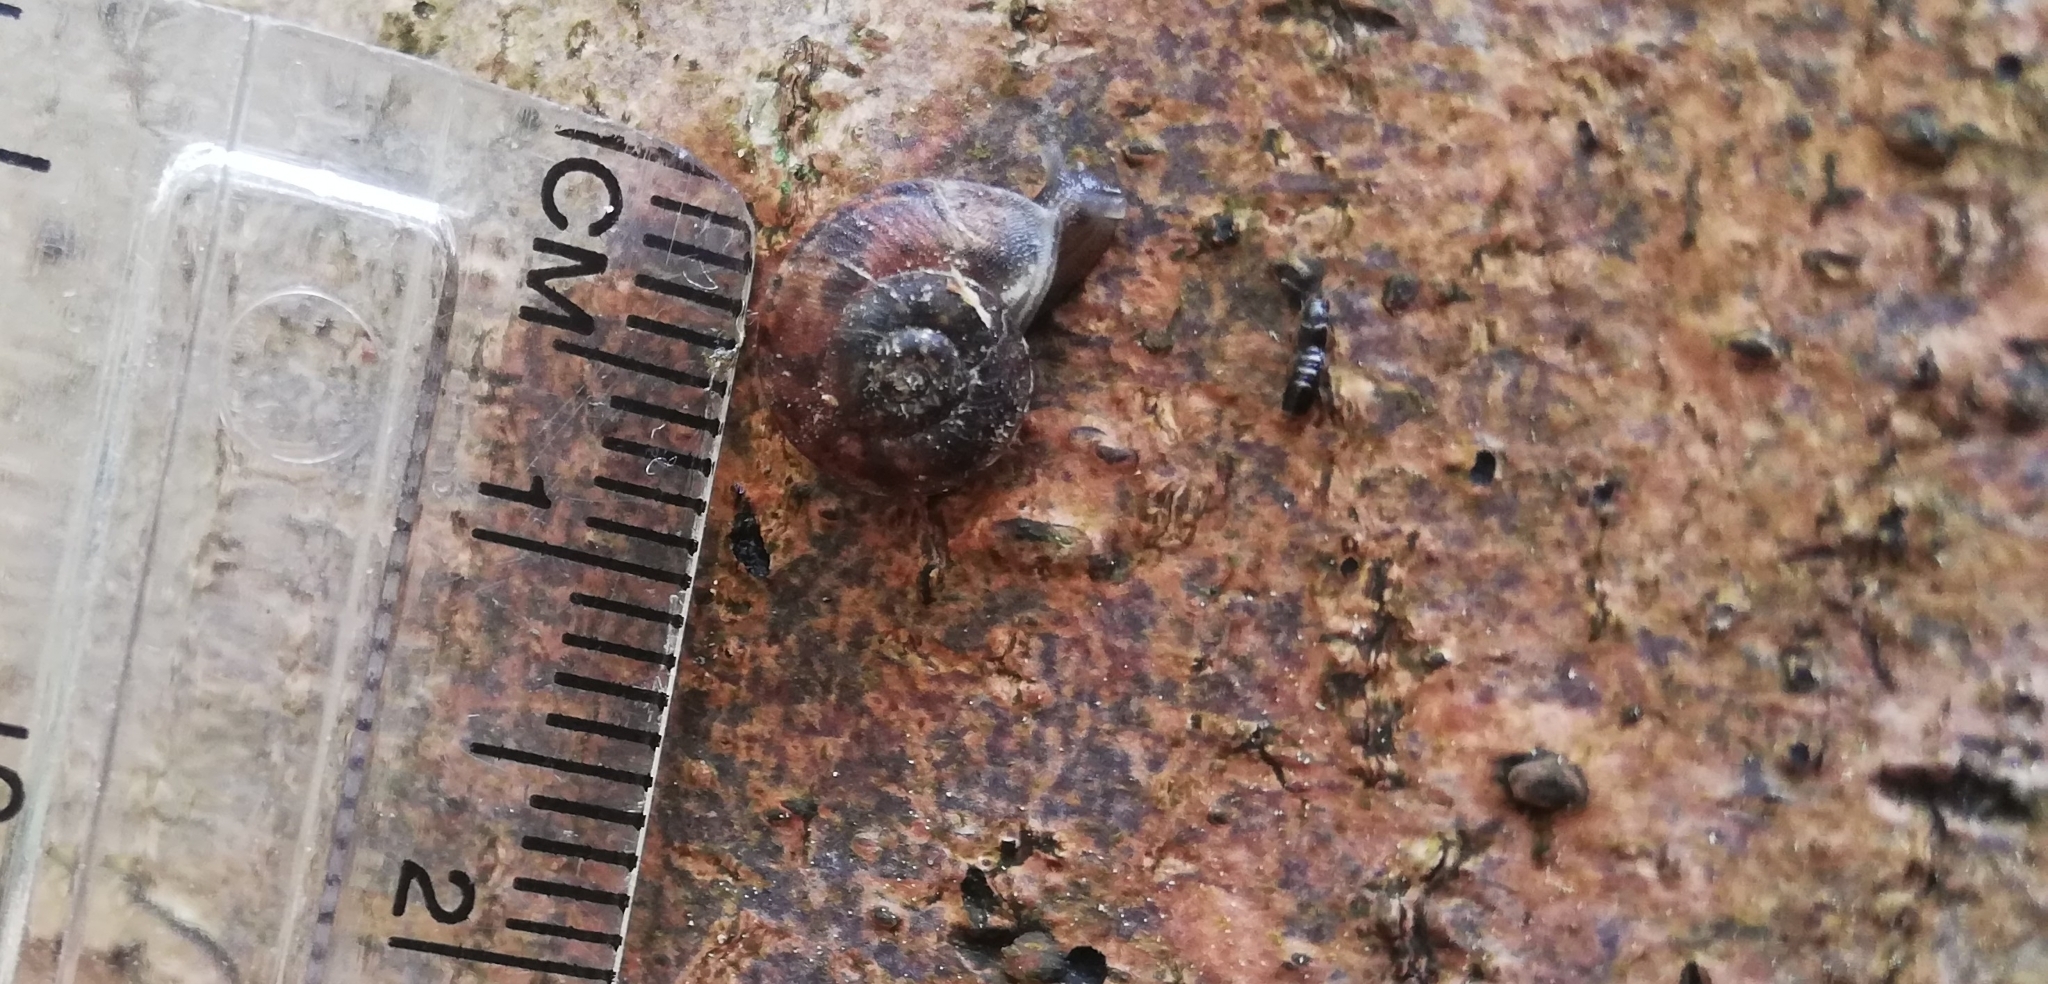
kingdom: Animalia
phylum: Mollusca
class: Gastropoda
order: Stylommatophora
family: Helicidae
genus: Helicigona
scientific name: Helicigona lapicida
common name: Lapidary snail
